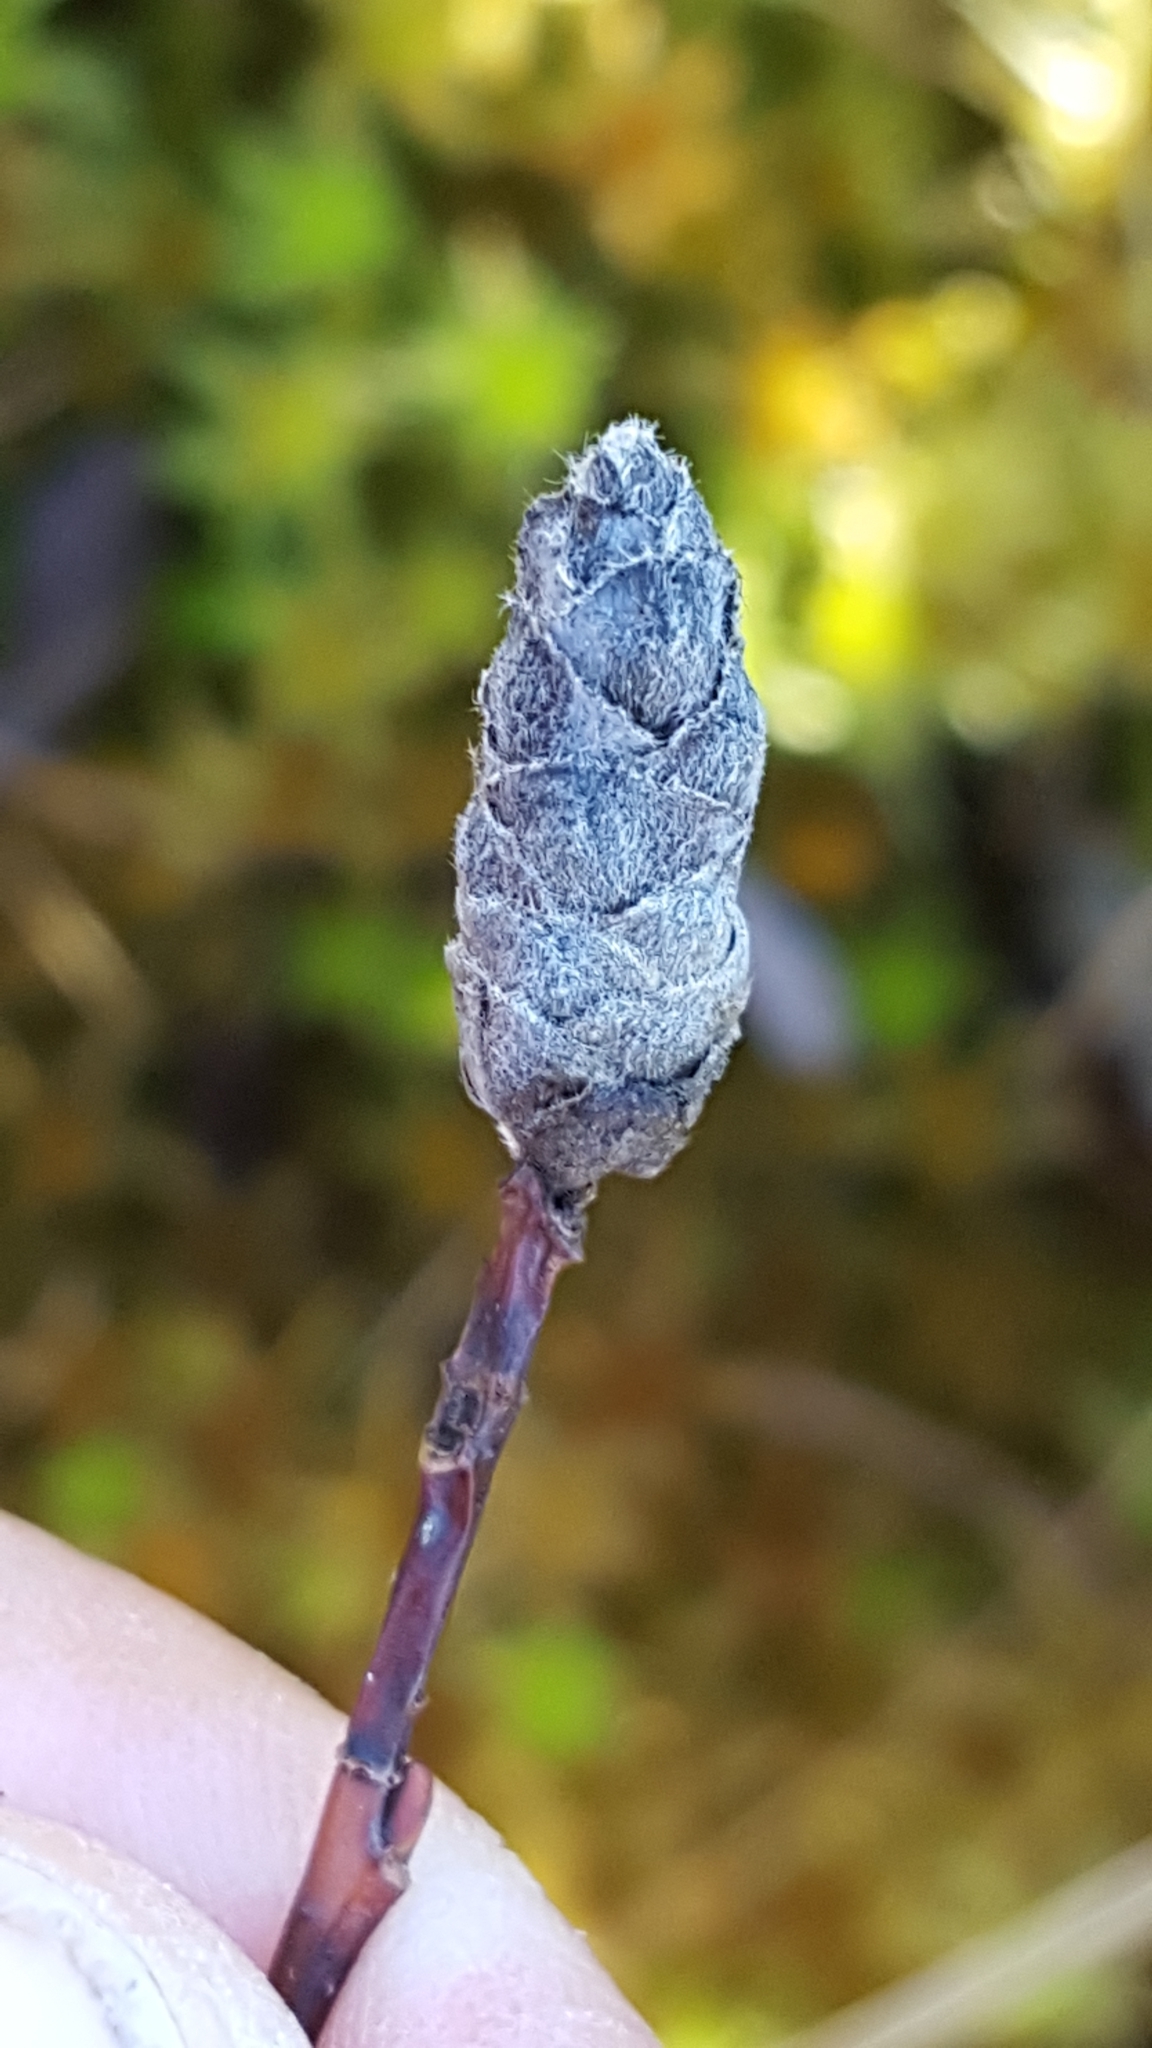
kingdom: Plantae
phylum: Tracheophyta
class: Magnoliopsida
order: Malpighiales
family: Salicaceae
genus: Salix
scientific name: Salix pedicellaris
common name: Bog willow
